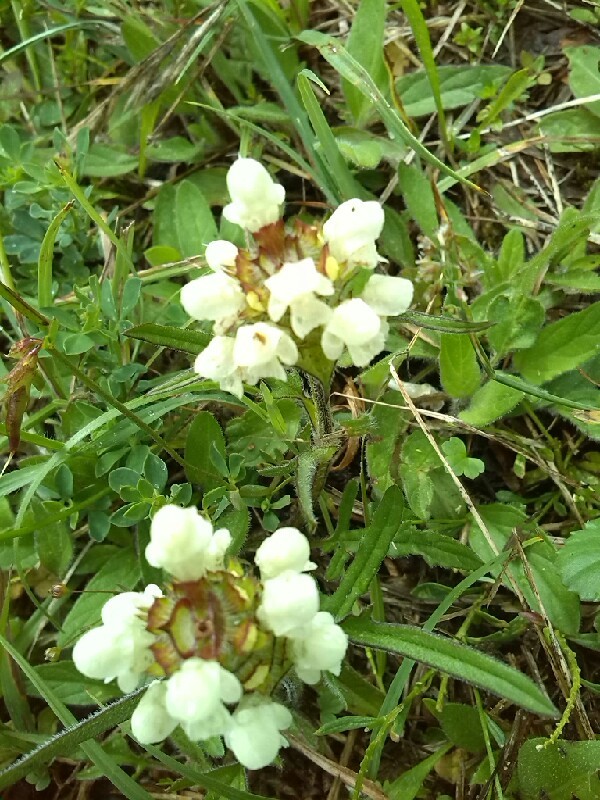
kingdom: Plantae
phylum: Tracheophyta
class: Magnoliopsida
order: Lamiales
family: Lamiaceae
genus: Prunella
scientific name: Prunella laciniata
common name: Cut-leaved selfheal
